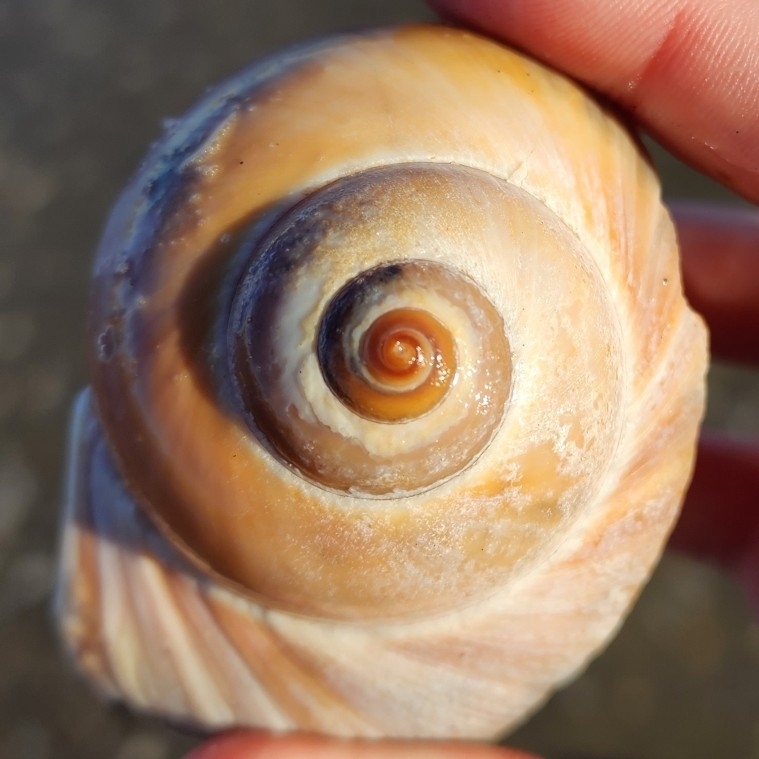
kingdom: Animalia
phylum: Mollusca
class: Gastropoda
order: Littorinimorpha
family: Naticidae
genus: Euspira
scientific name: Euspira heros
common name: Common northern moonsnail
